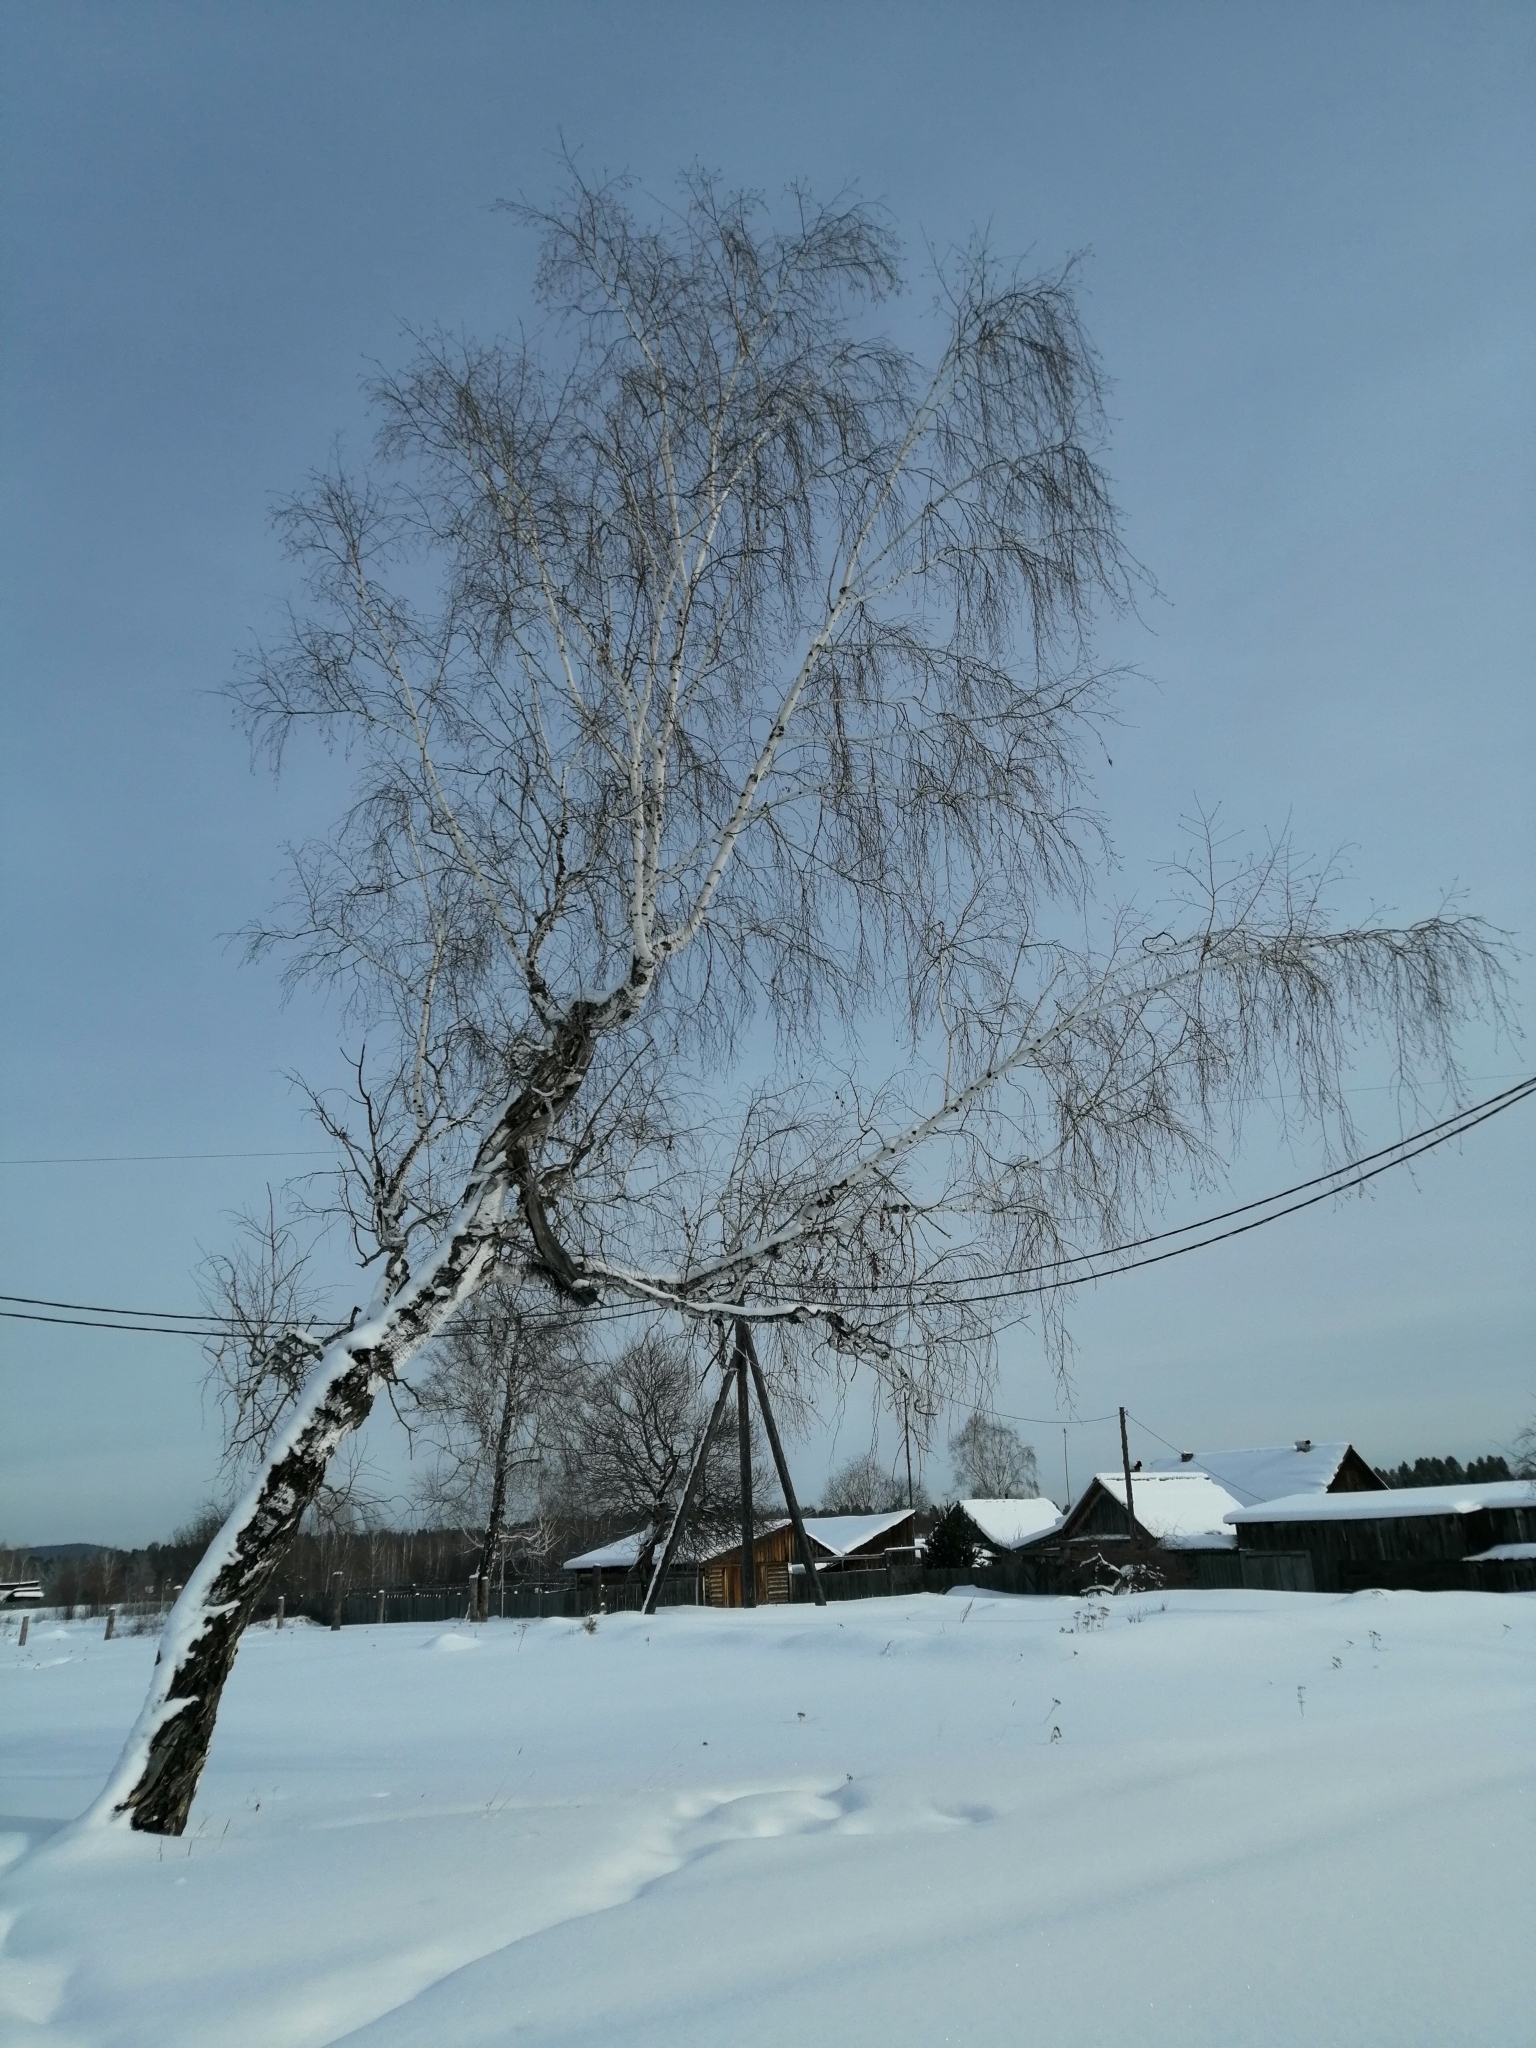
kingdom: Plantae
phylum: Tracheophyta
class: Magnoliopsida
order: Fagales
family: Betulaceae
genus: Betula
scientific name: Betula pendula
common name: Silver birch
